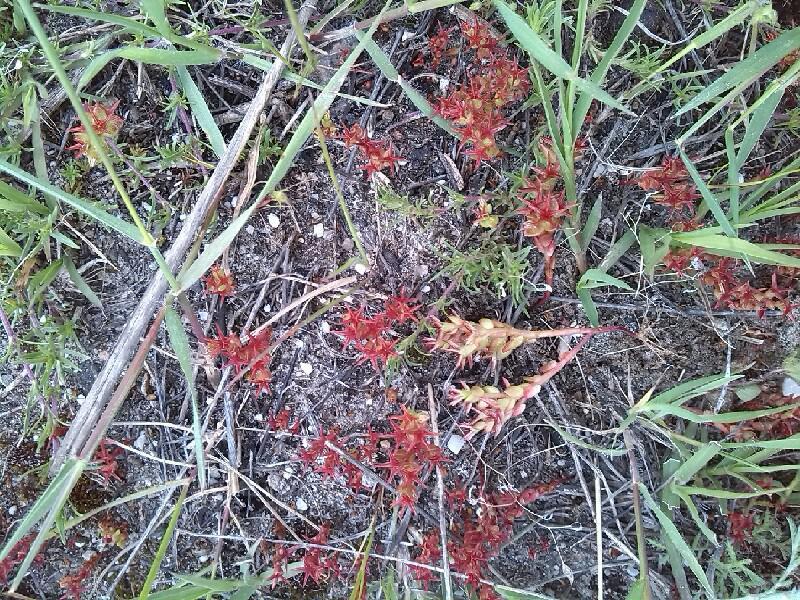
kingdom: Plantae
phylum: Tracheophyta
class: Magnoliopsida
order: Saxifragales
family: Crassulaceae
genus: Sedum
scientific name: Sedum cespitosum
